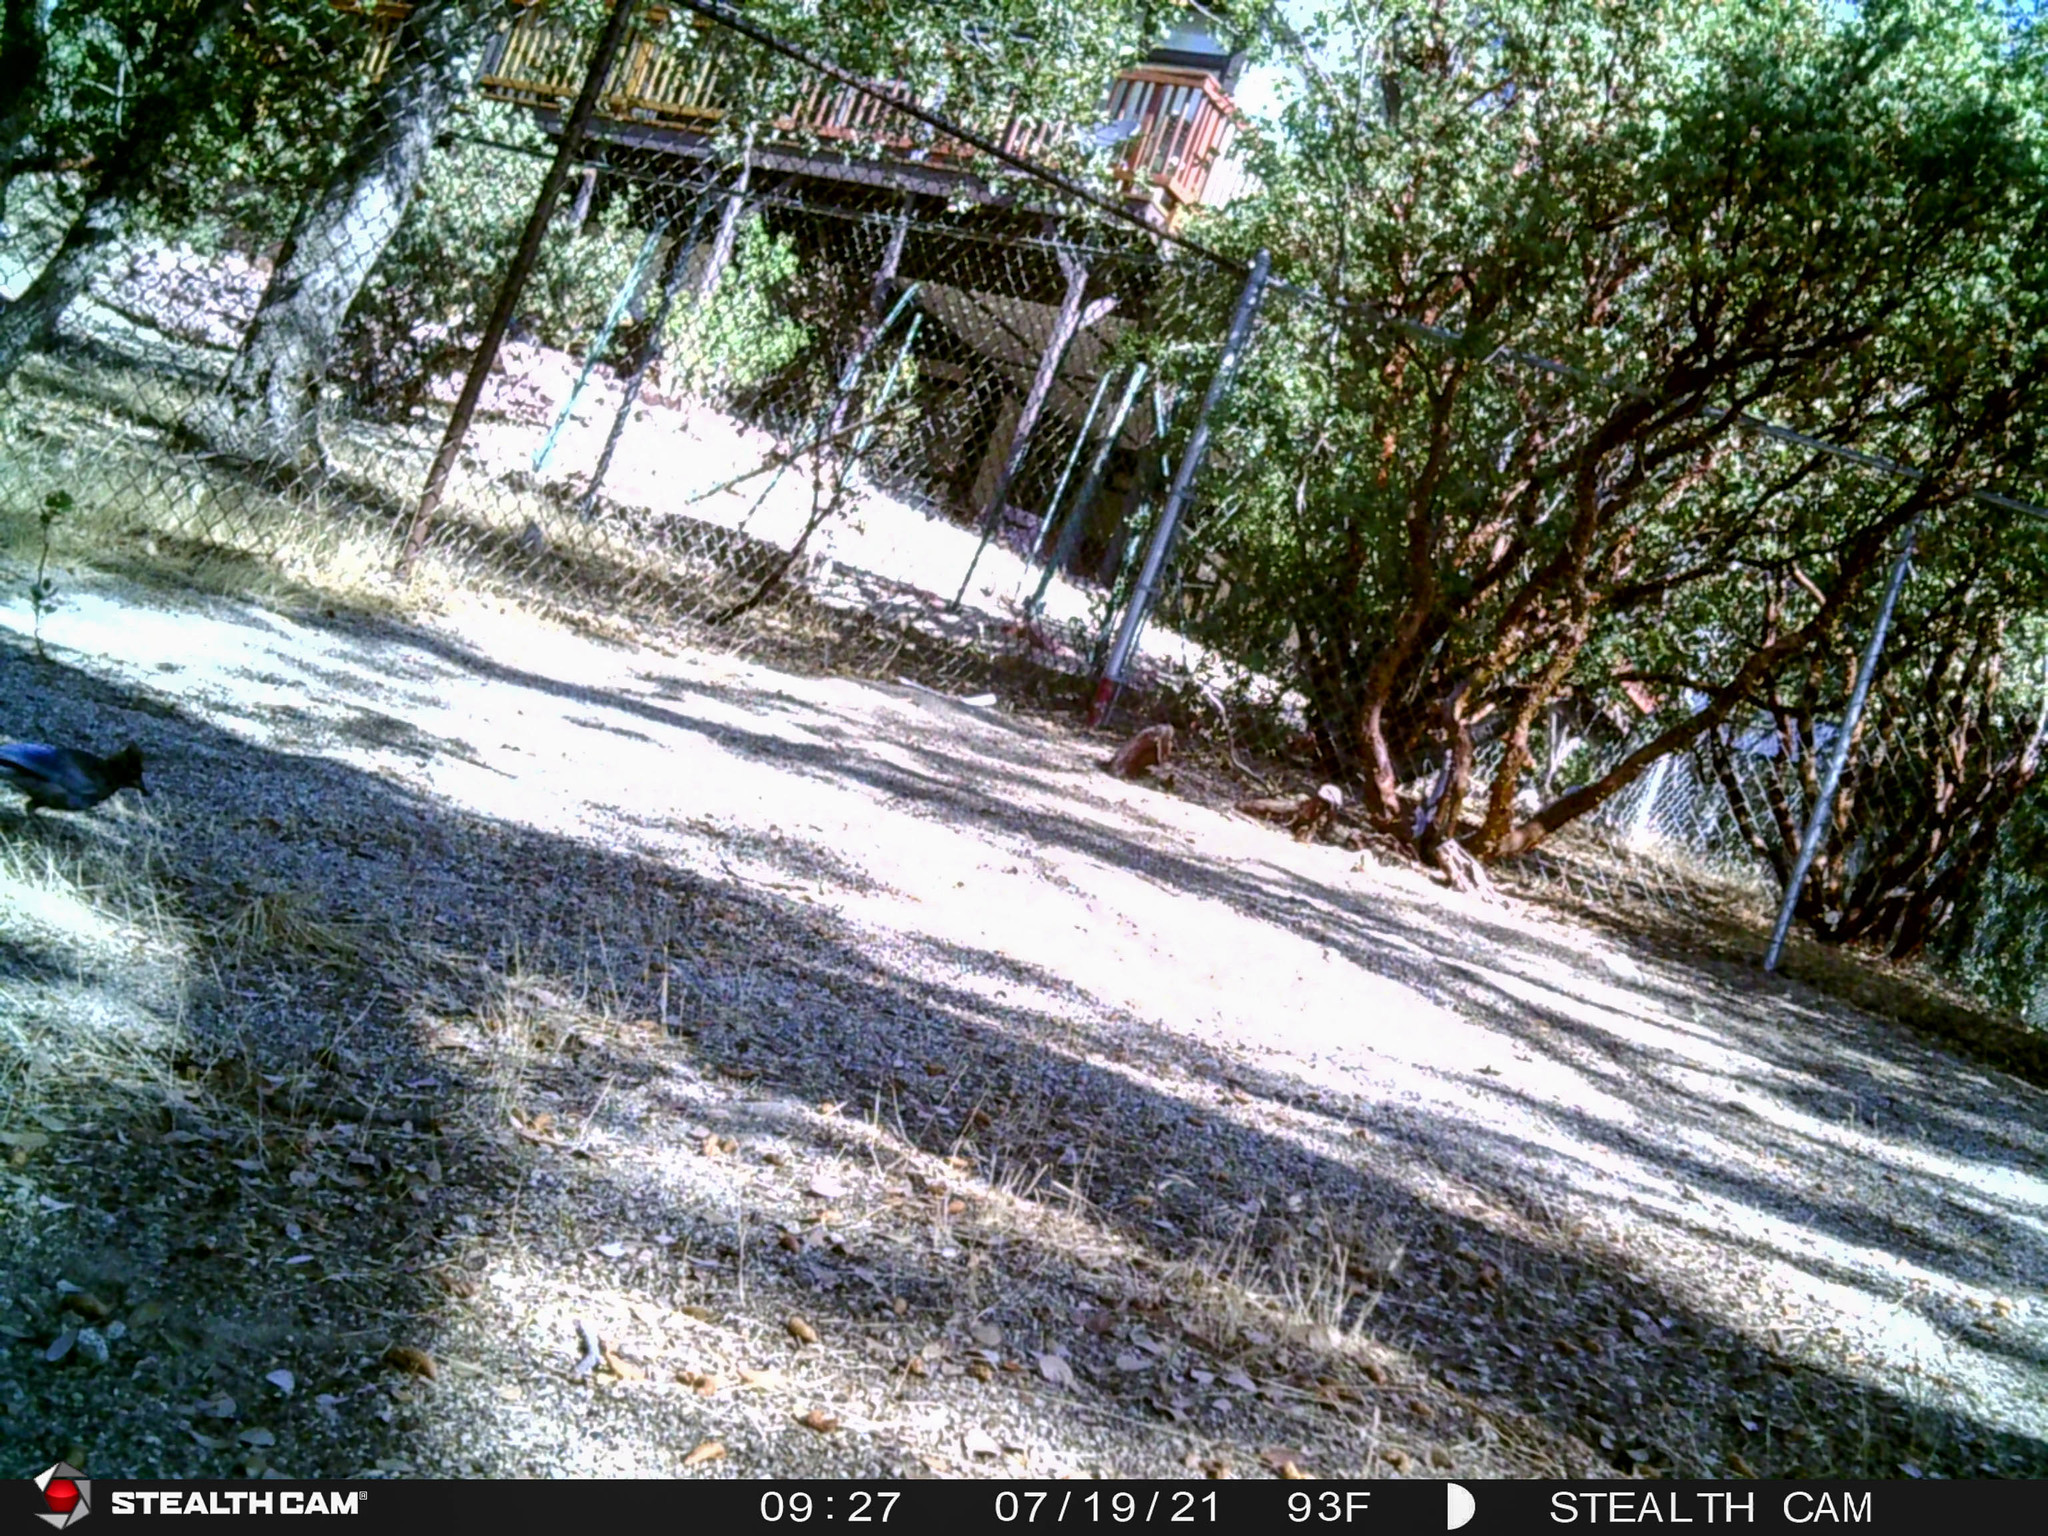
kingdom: Animalia
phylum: Chordata
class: Aves
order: Passeriformes
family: Corvidae
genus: Cyanocitta
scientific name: Cyanocitta stelleri
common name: Steller's jay
